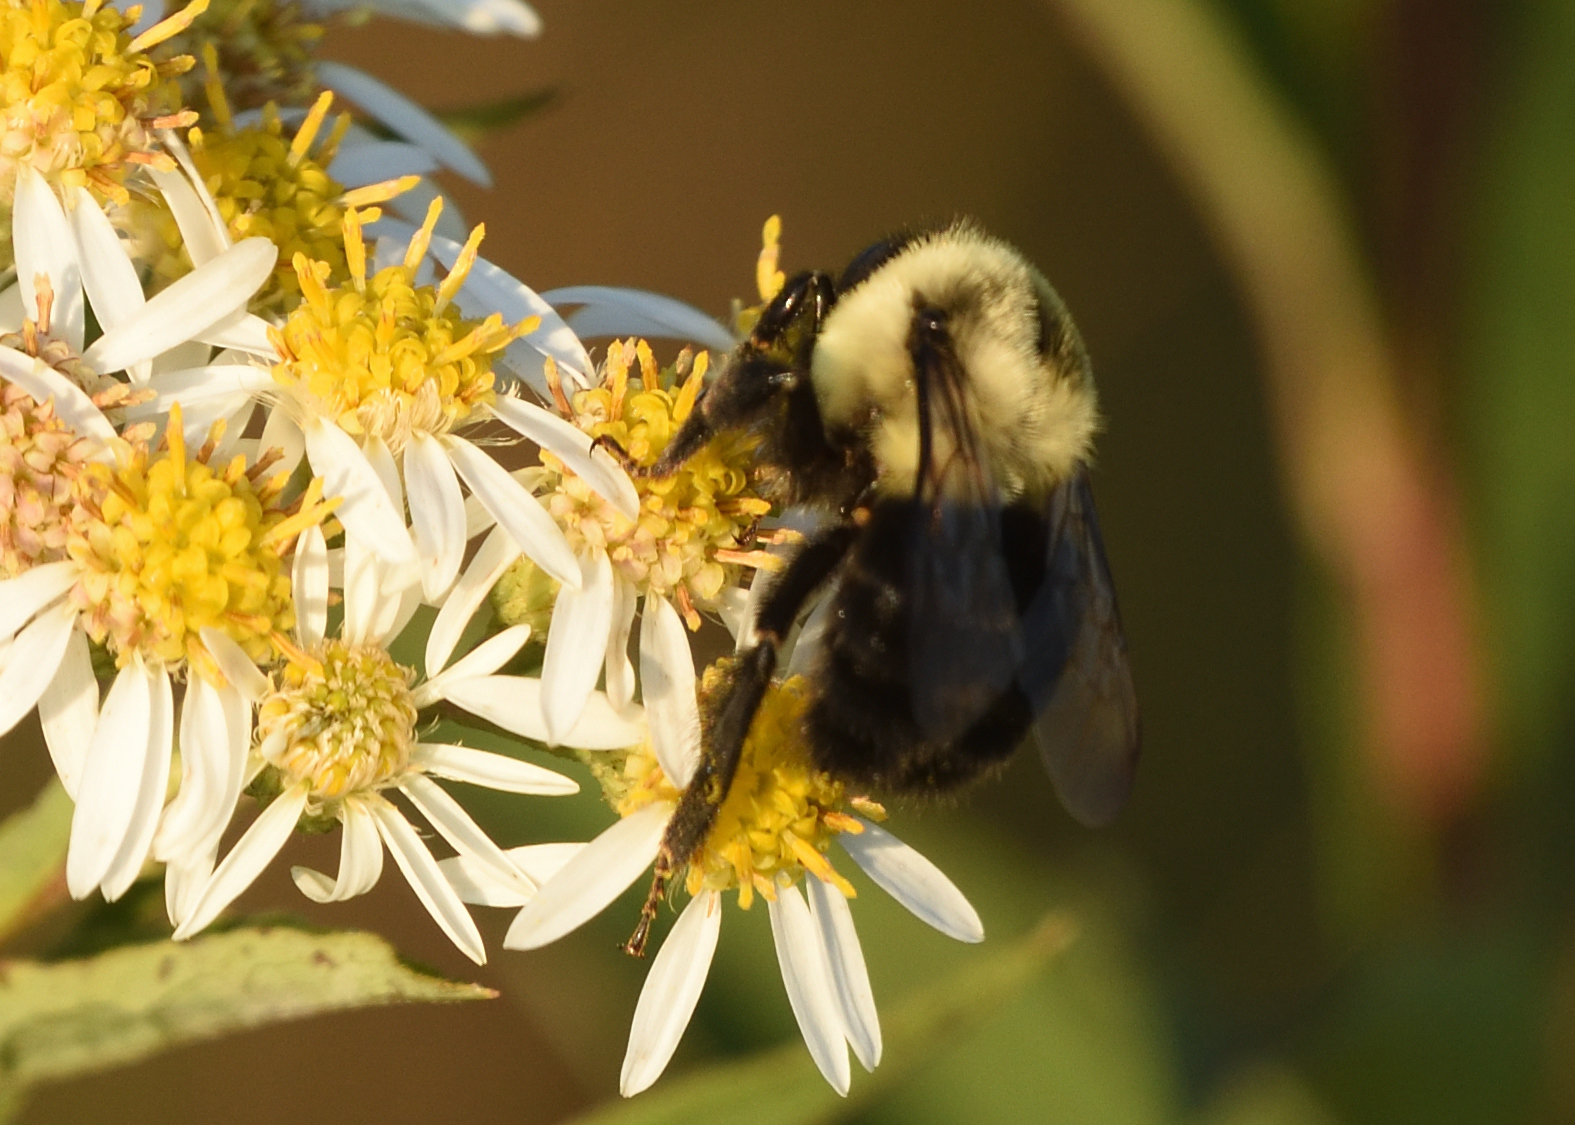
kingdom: Animalia
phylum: Arthropoda
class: Insecta
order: Hymenoptera
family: Apidae
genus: Bombus
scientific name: Bombus impatiens
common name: Common eastern bumble bee
